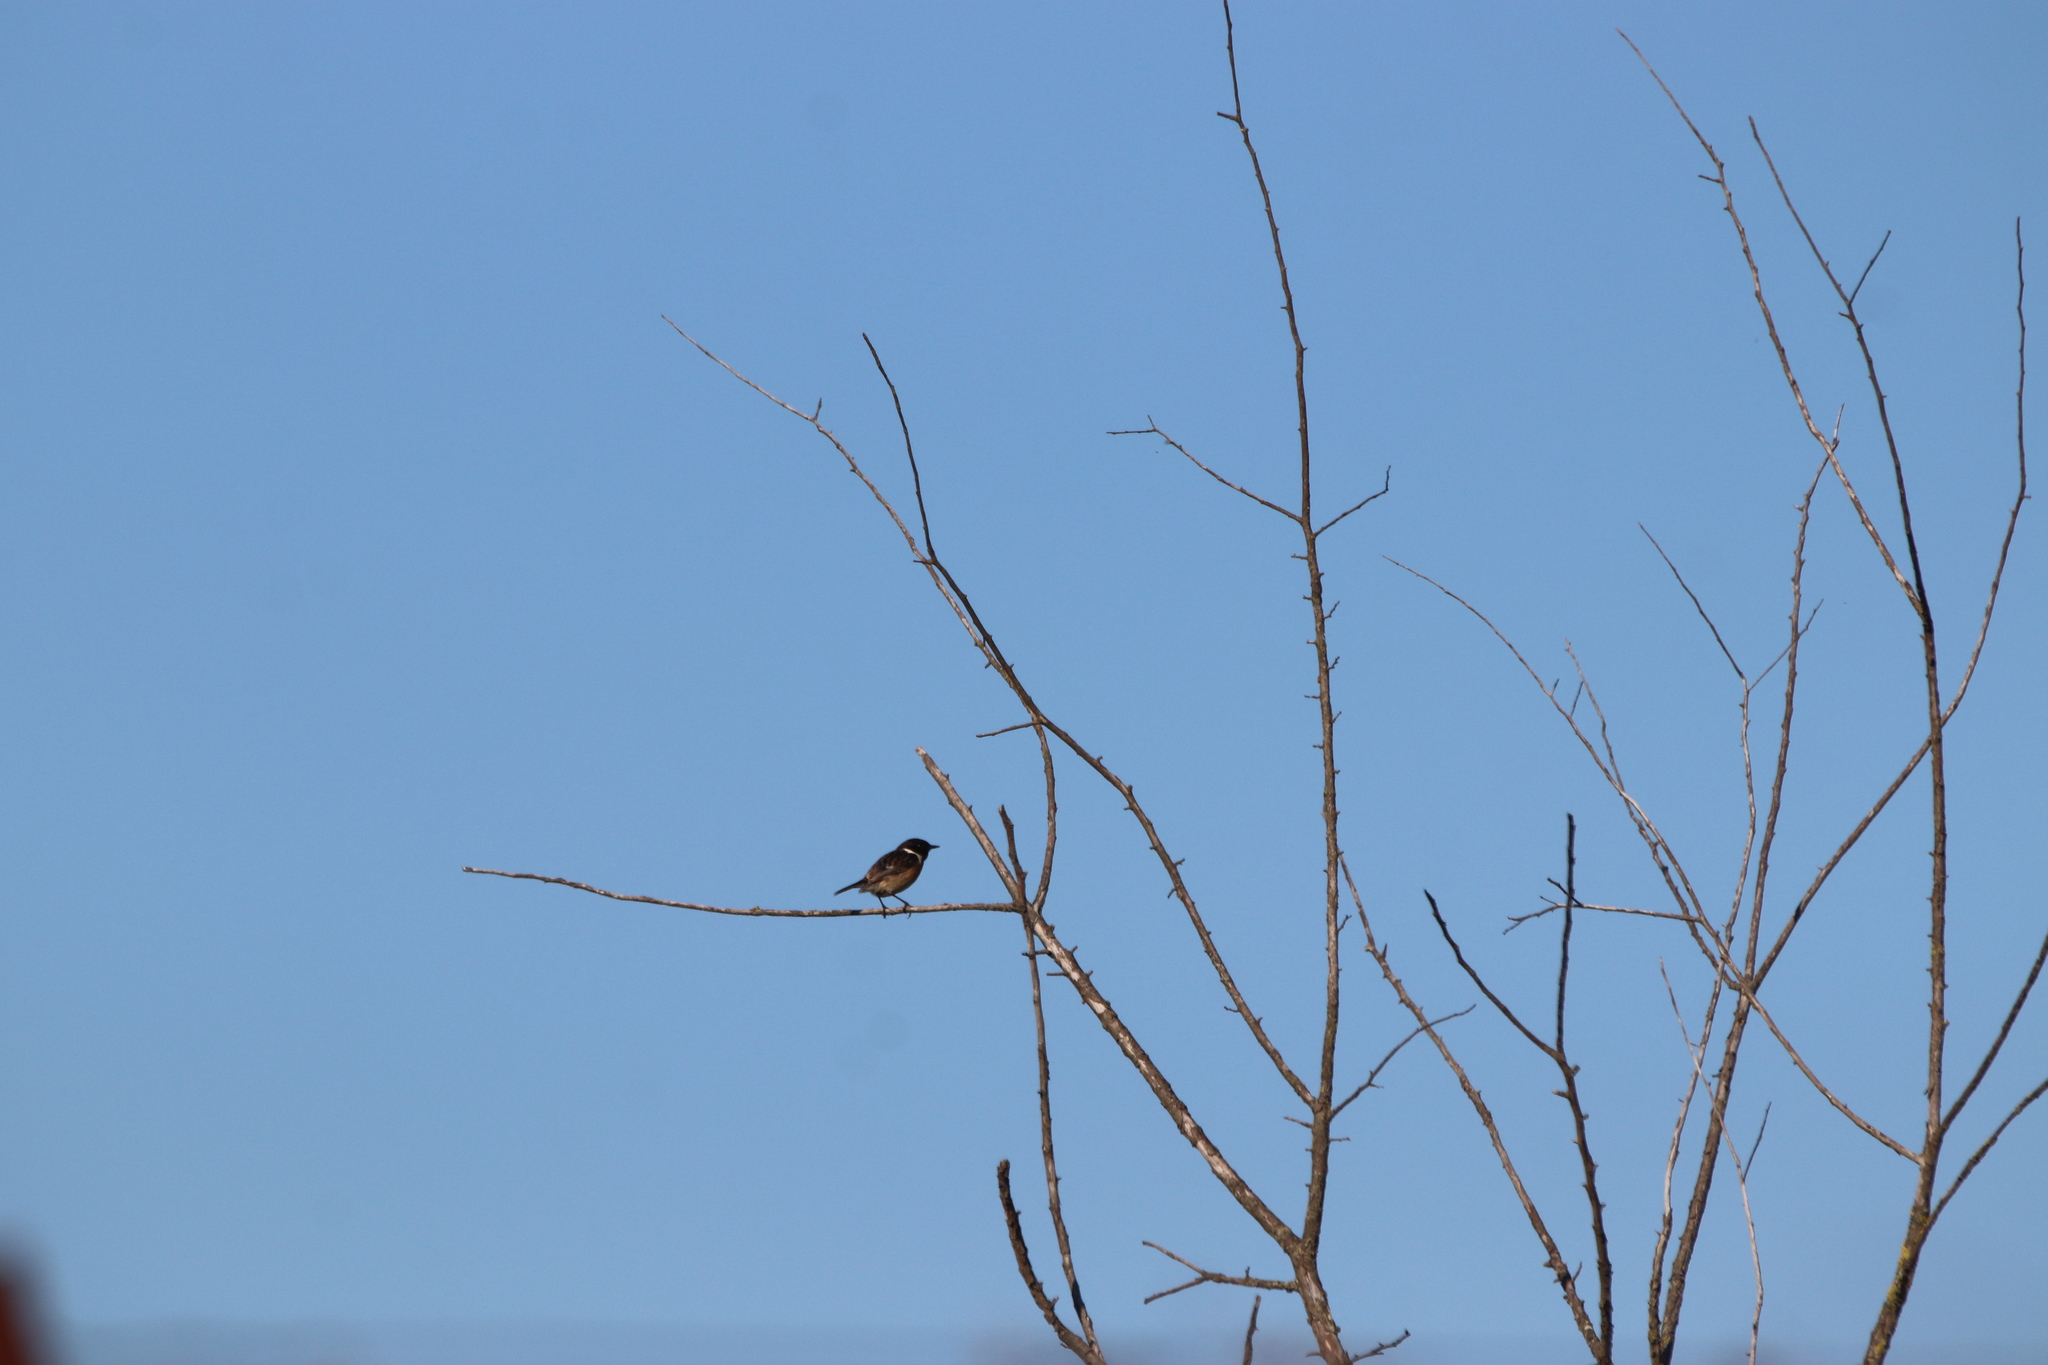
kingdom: Animalia
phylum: Chordata
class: Aves
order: Passeriformes
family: Muscicapidae
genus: Saxicola
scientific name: Saxicola rubicola
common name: European stonechat
